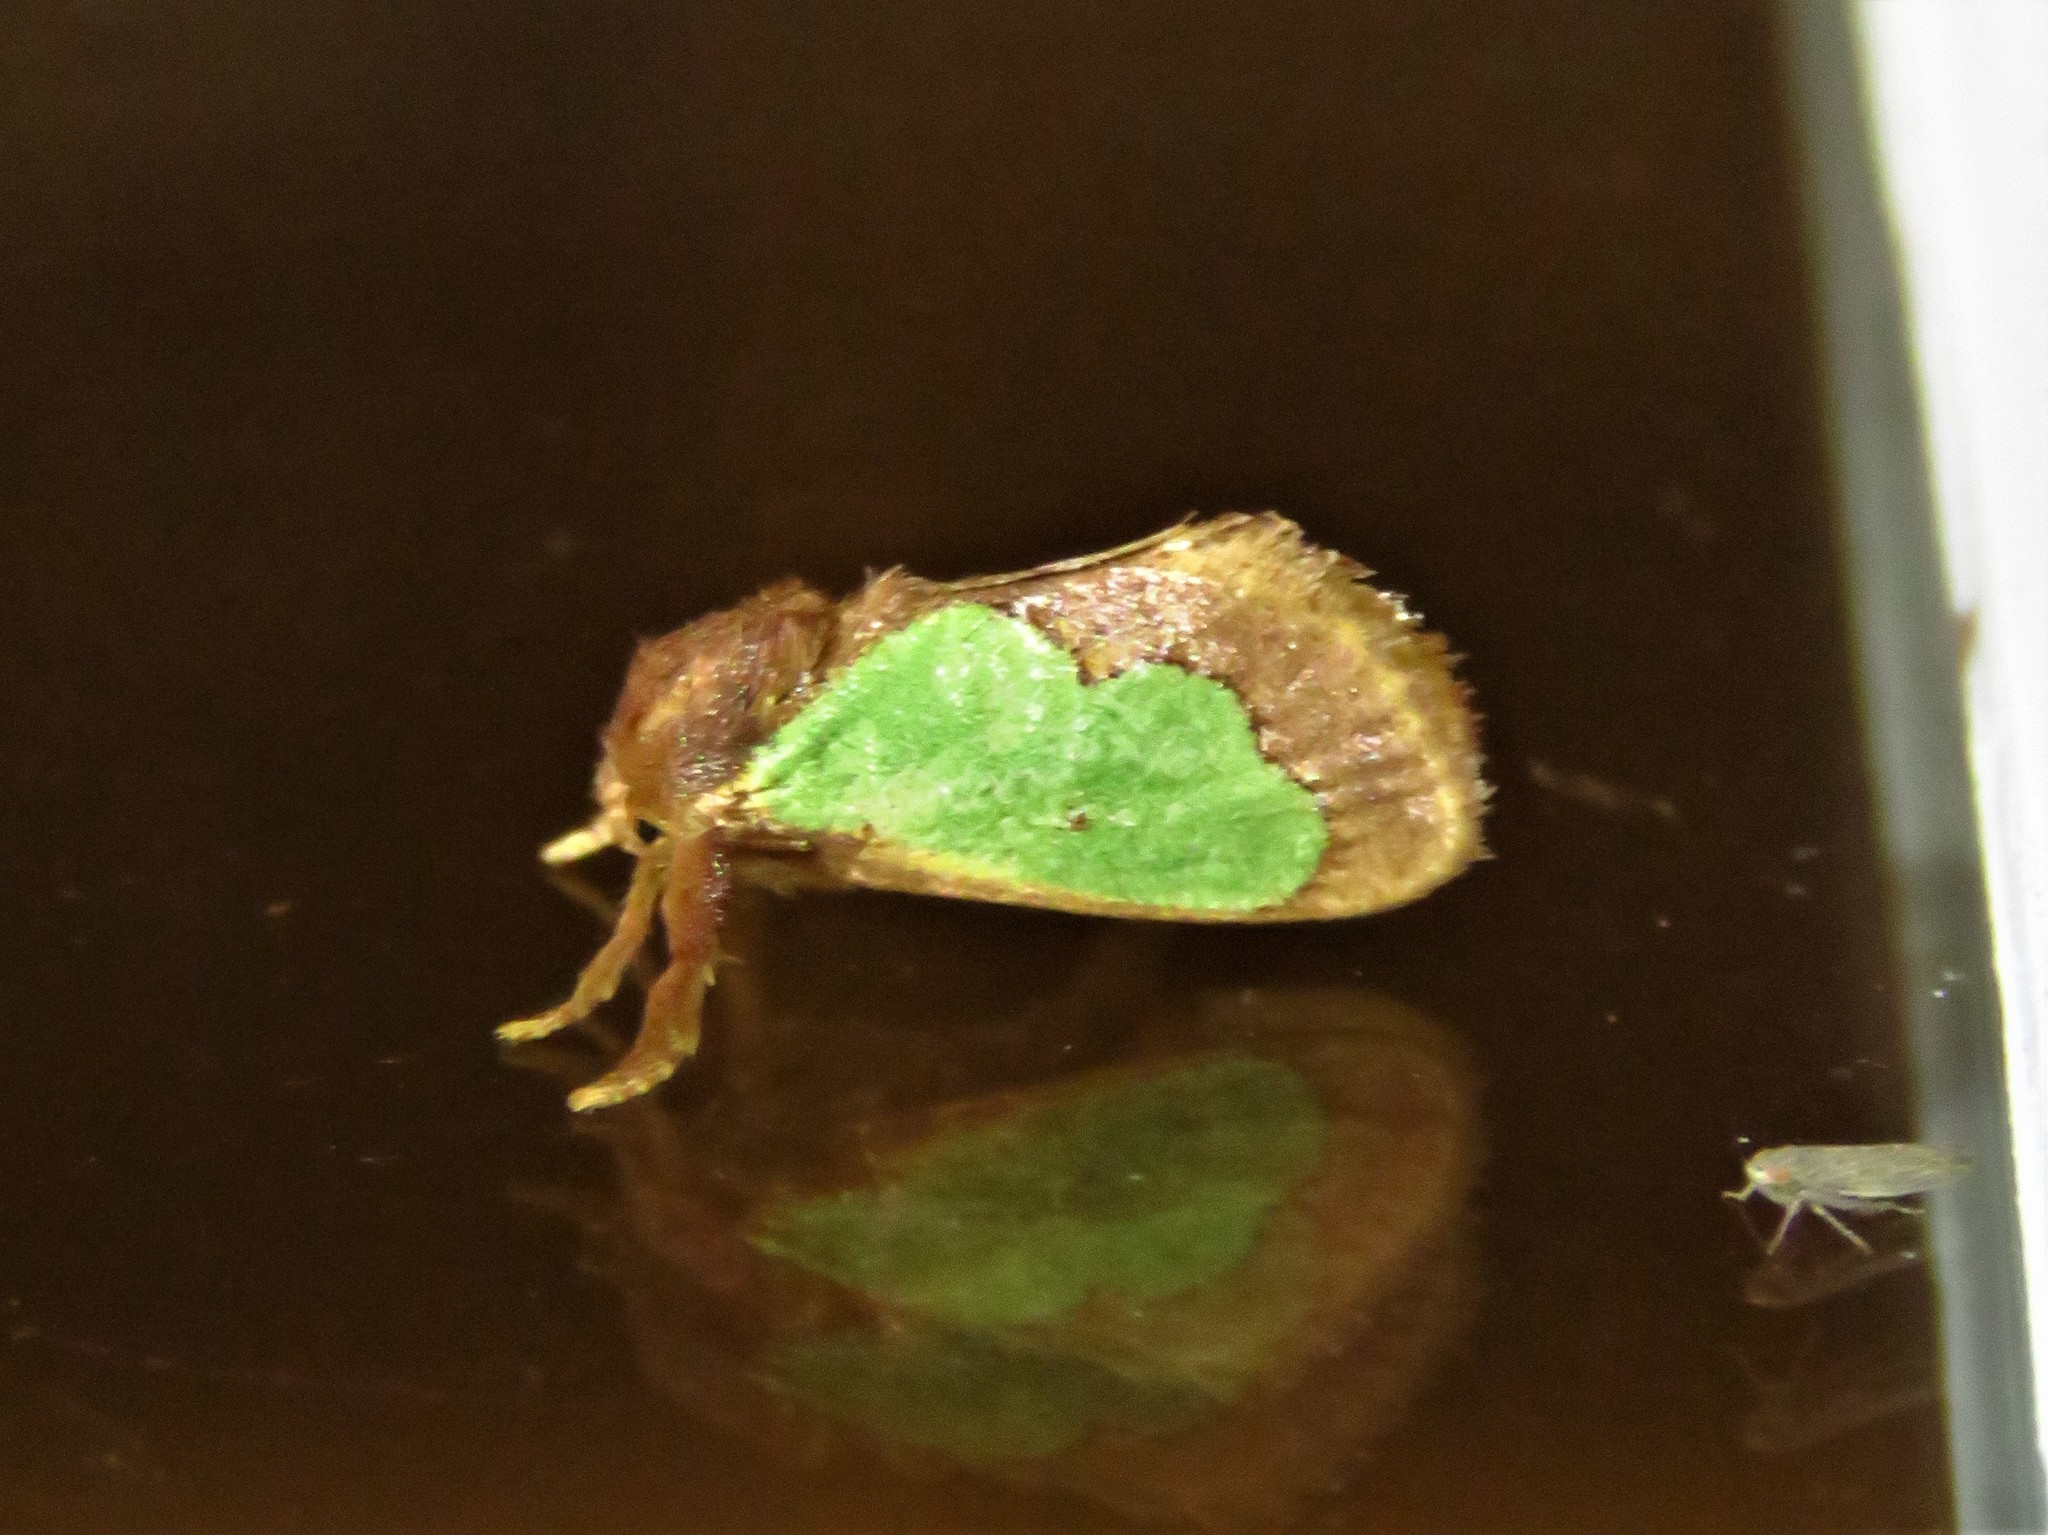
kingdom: Animalia
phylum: Arthropoda
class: Insecta
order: Lepidoptera
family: Limacodidae
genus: Euclea
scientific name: Euclea incisa
